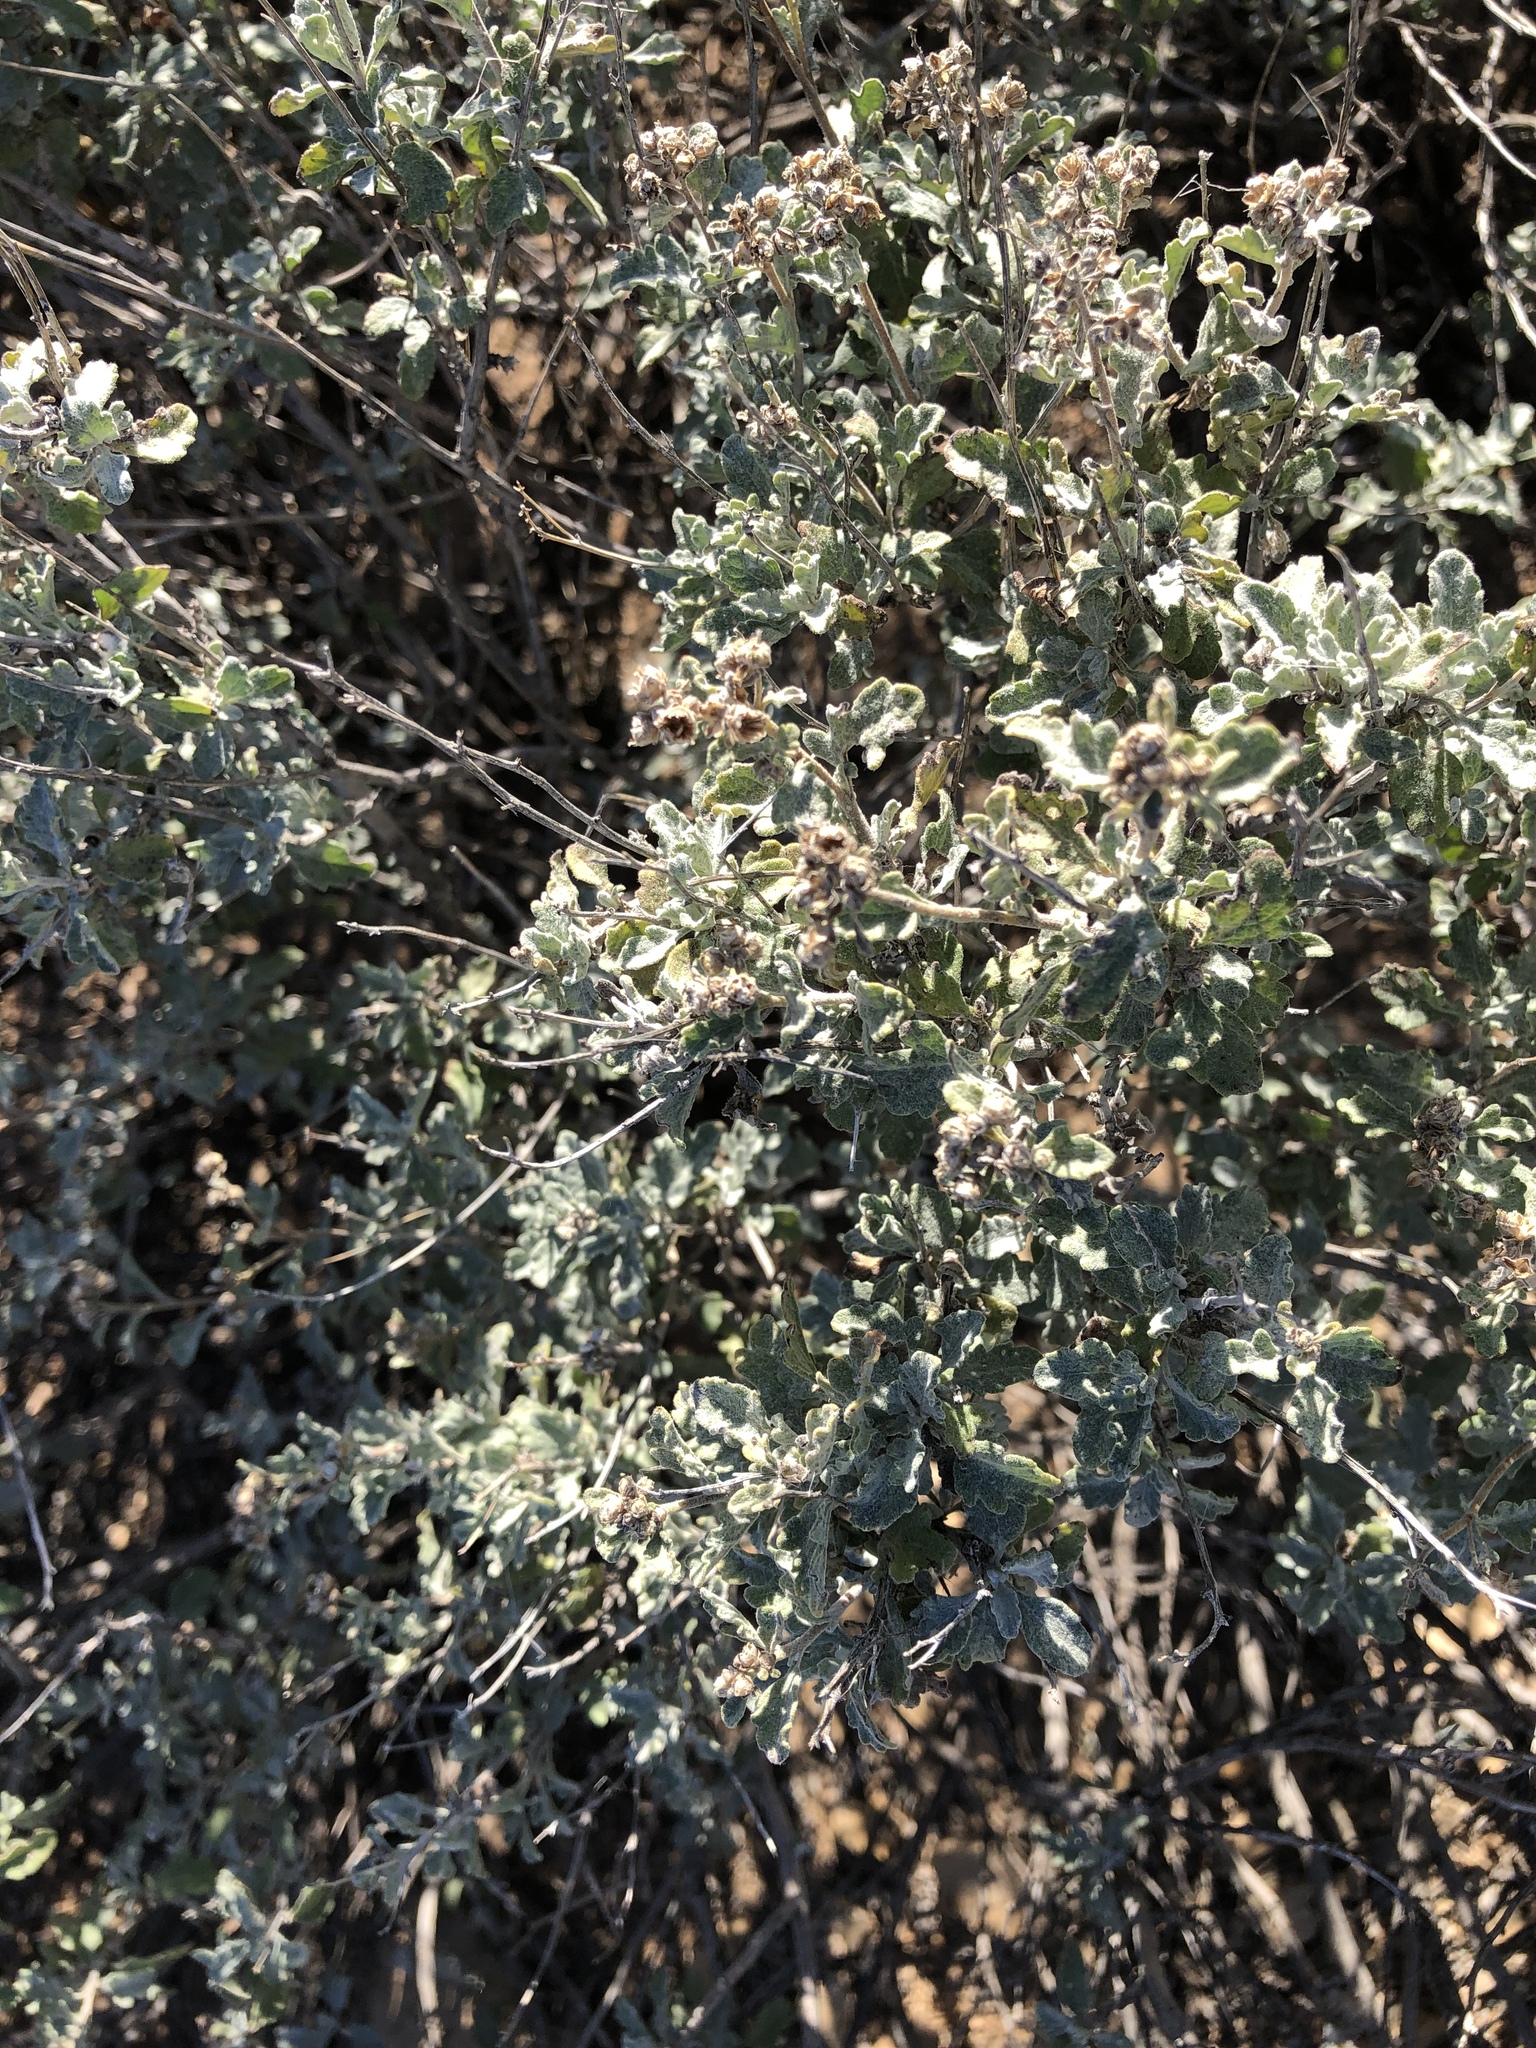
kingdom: Plantae
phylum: Tracheophyta
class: Magnoliopsida
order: Asterales
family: Asteraceae
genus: Parthenium
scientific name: Parthenium incanum
